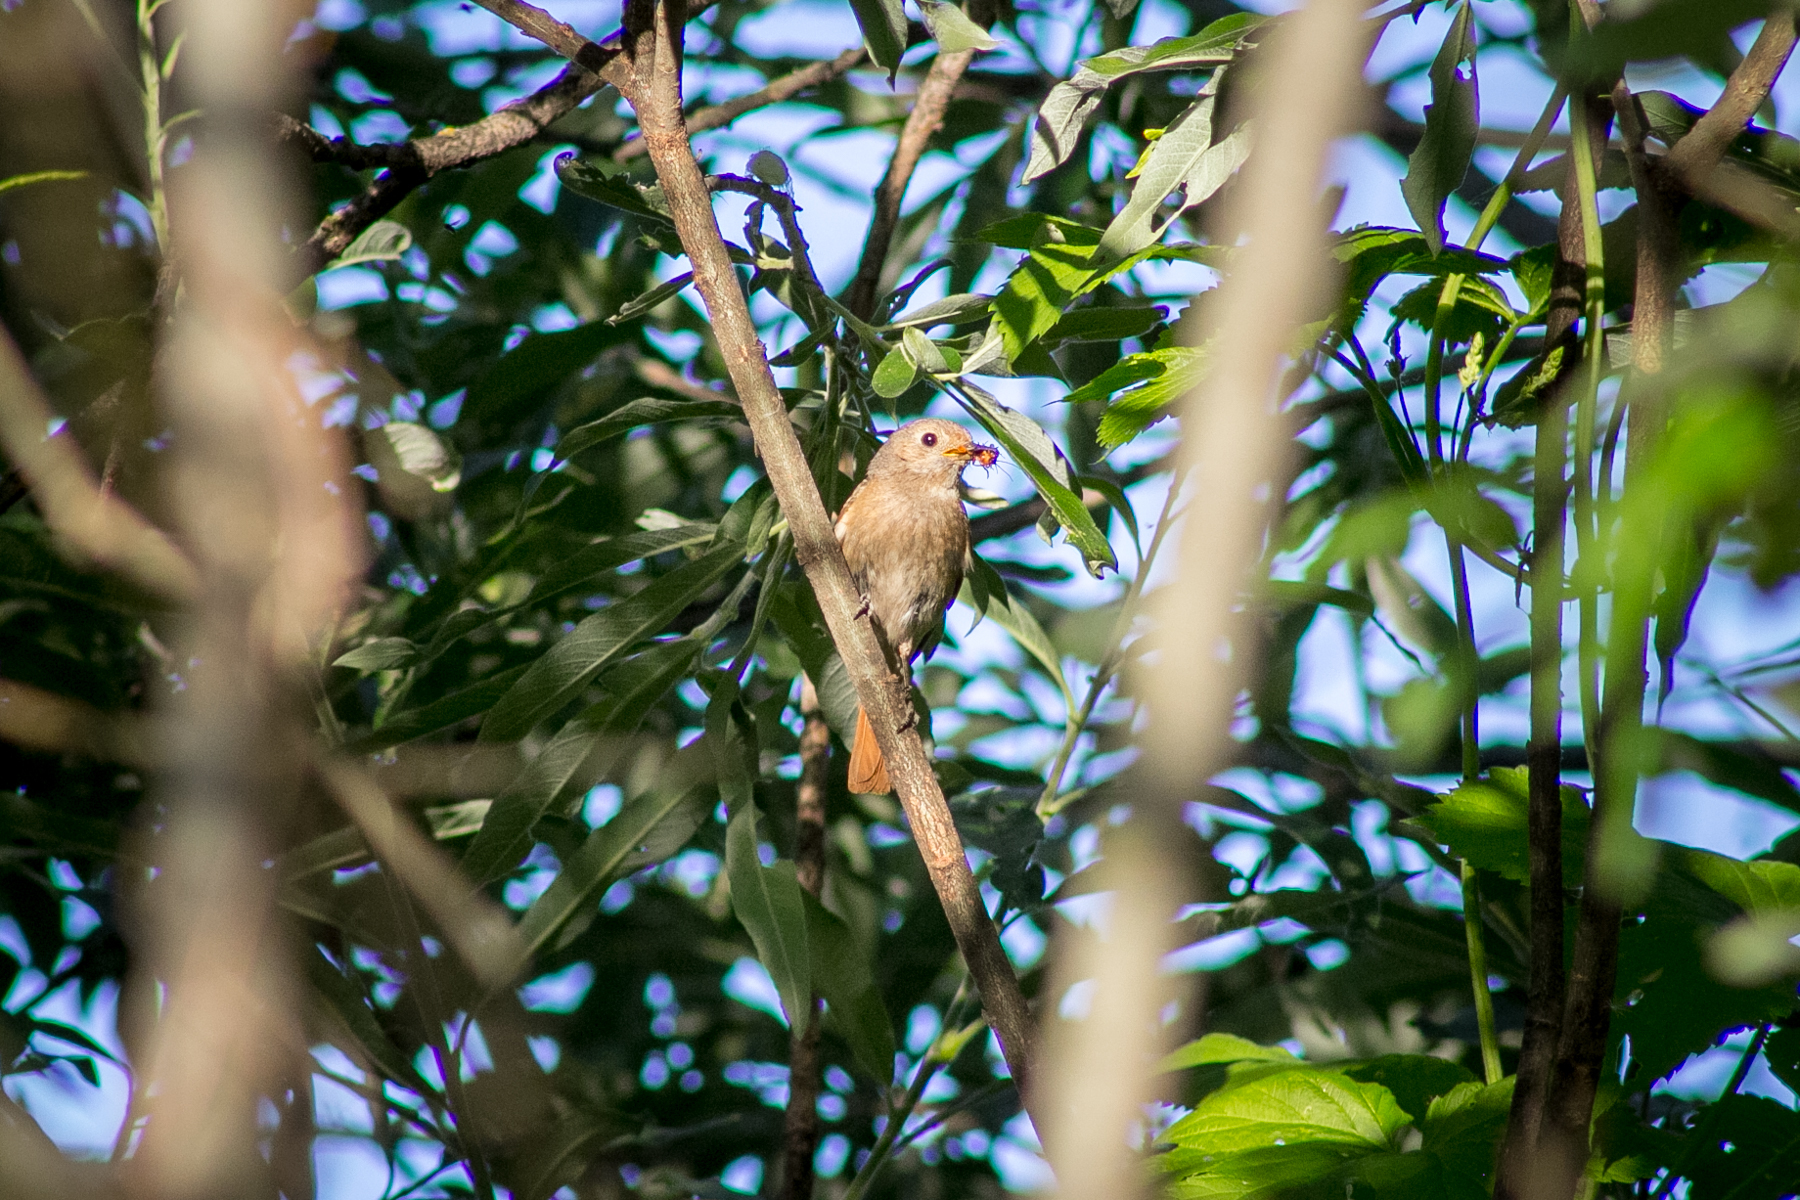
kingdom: Animalia
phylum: Chordata
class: Aves
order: Passeriformes
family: Muscicapidae
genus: Phoenicurus
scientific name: Phoenicurus phoenicurus
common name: Common redstart
